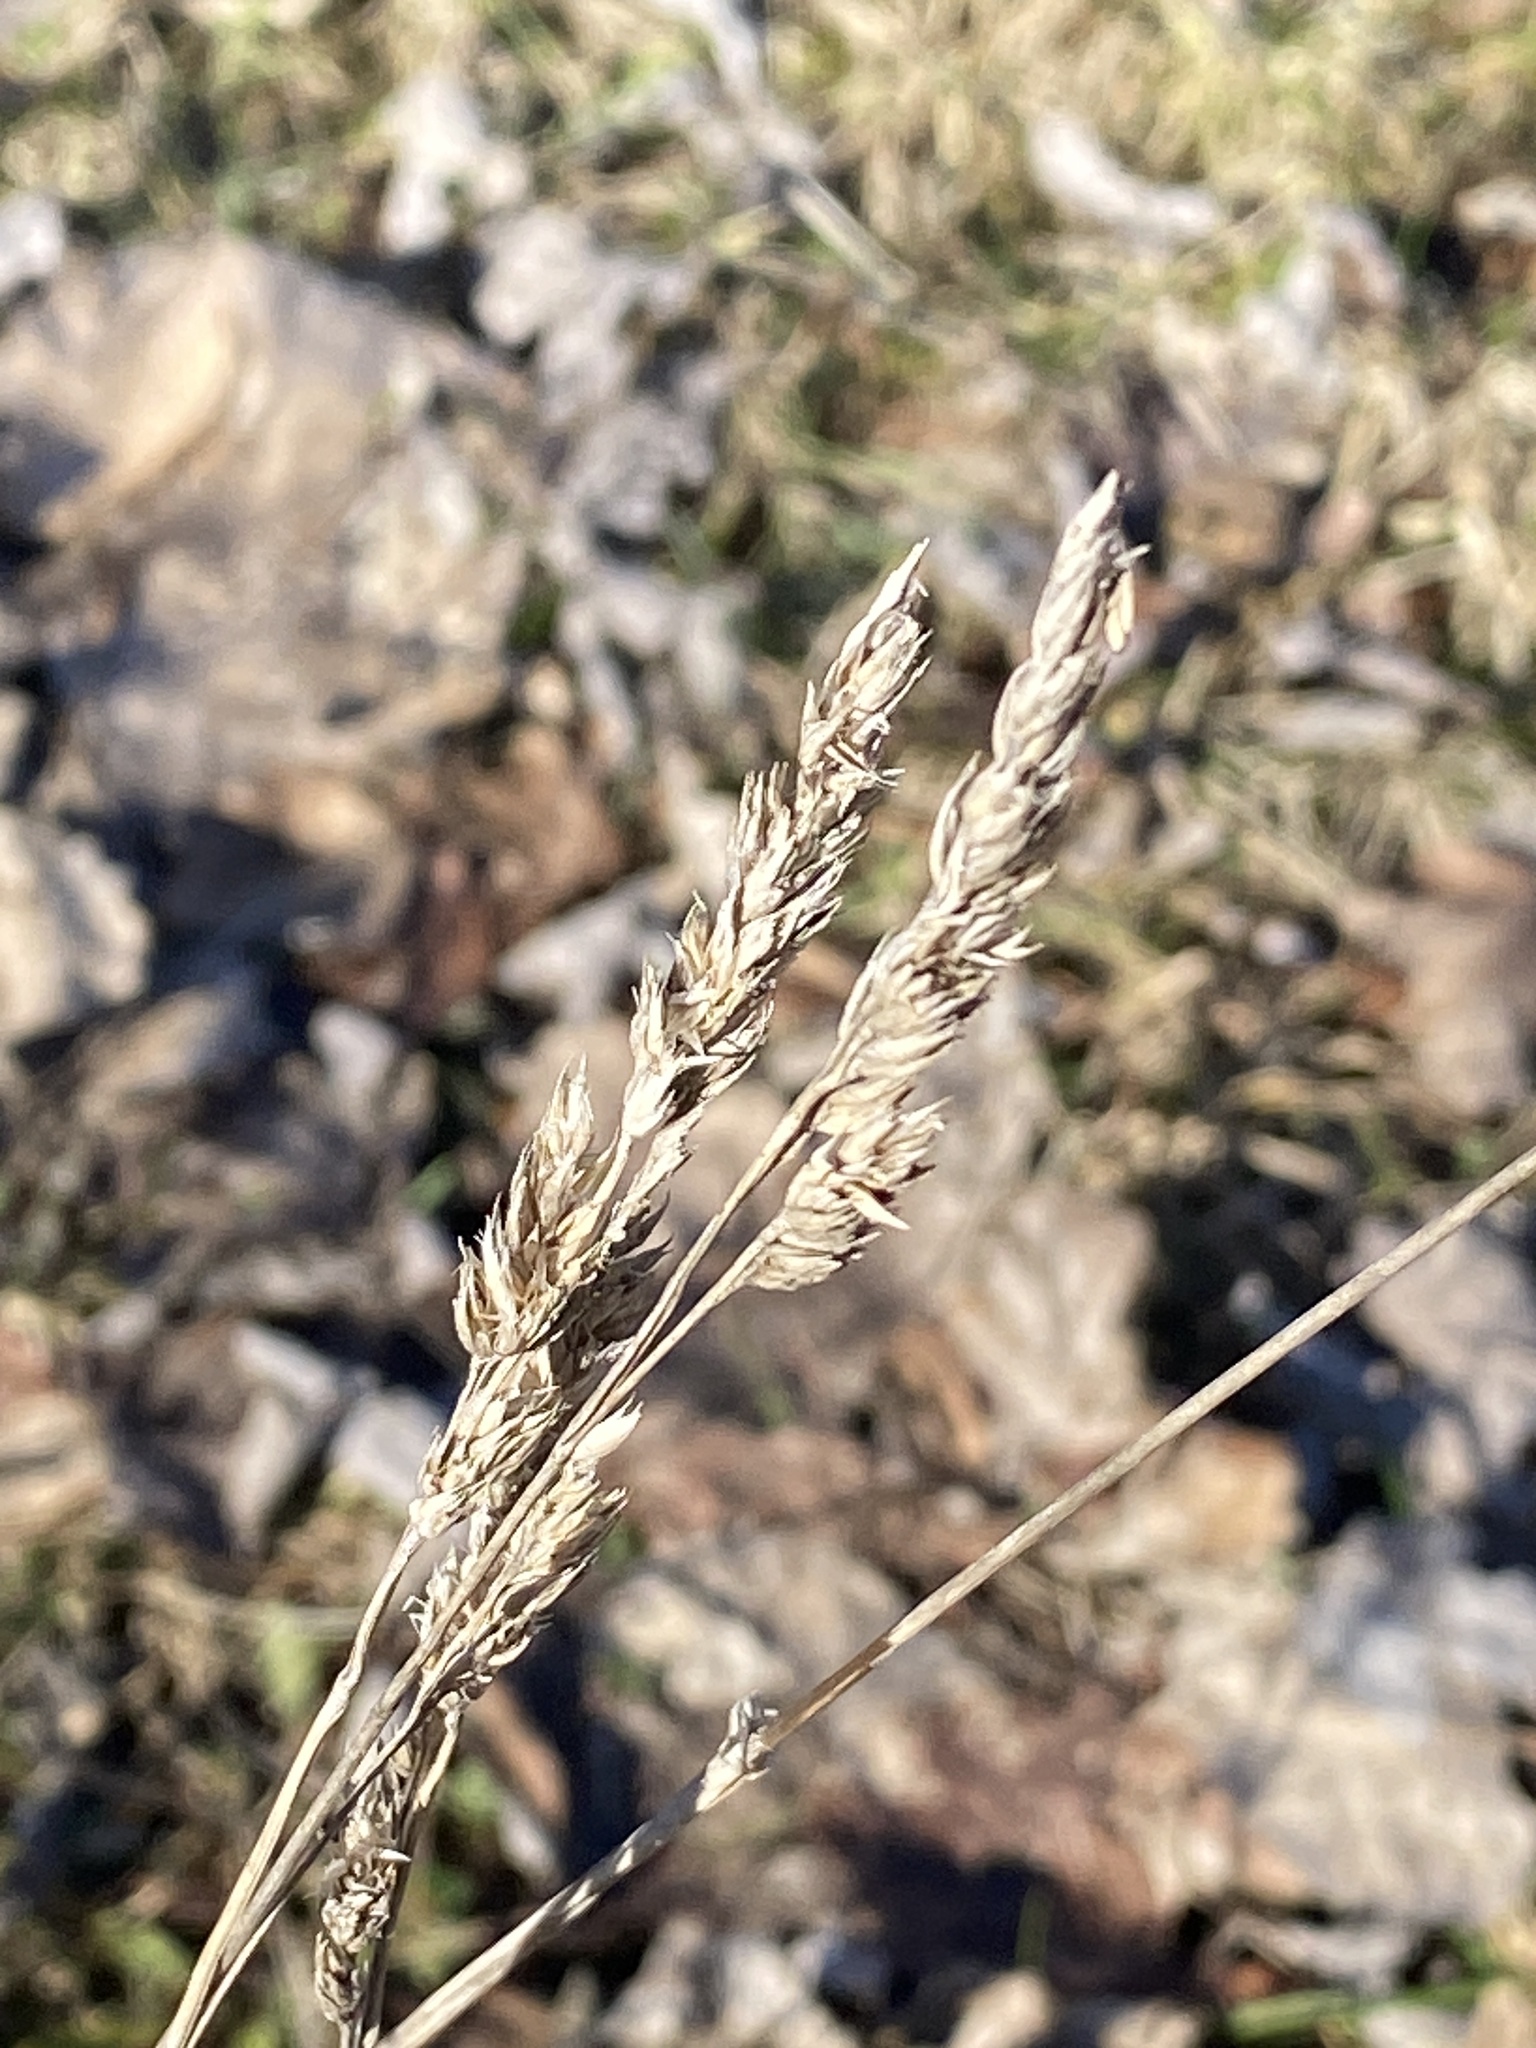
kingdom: Plantae
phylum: Tracheophyta
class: Liliopsida
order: Poales
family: Poaceae
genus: Dactylis
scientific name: Dactylis glomerata
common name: Orchardgrass
